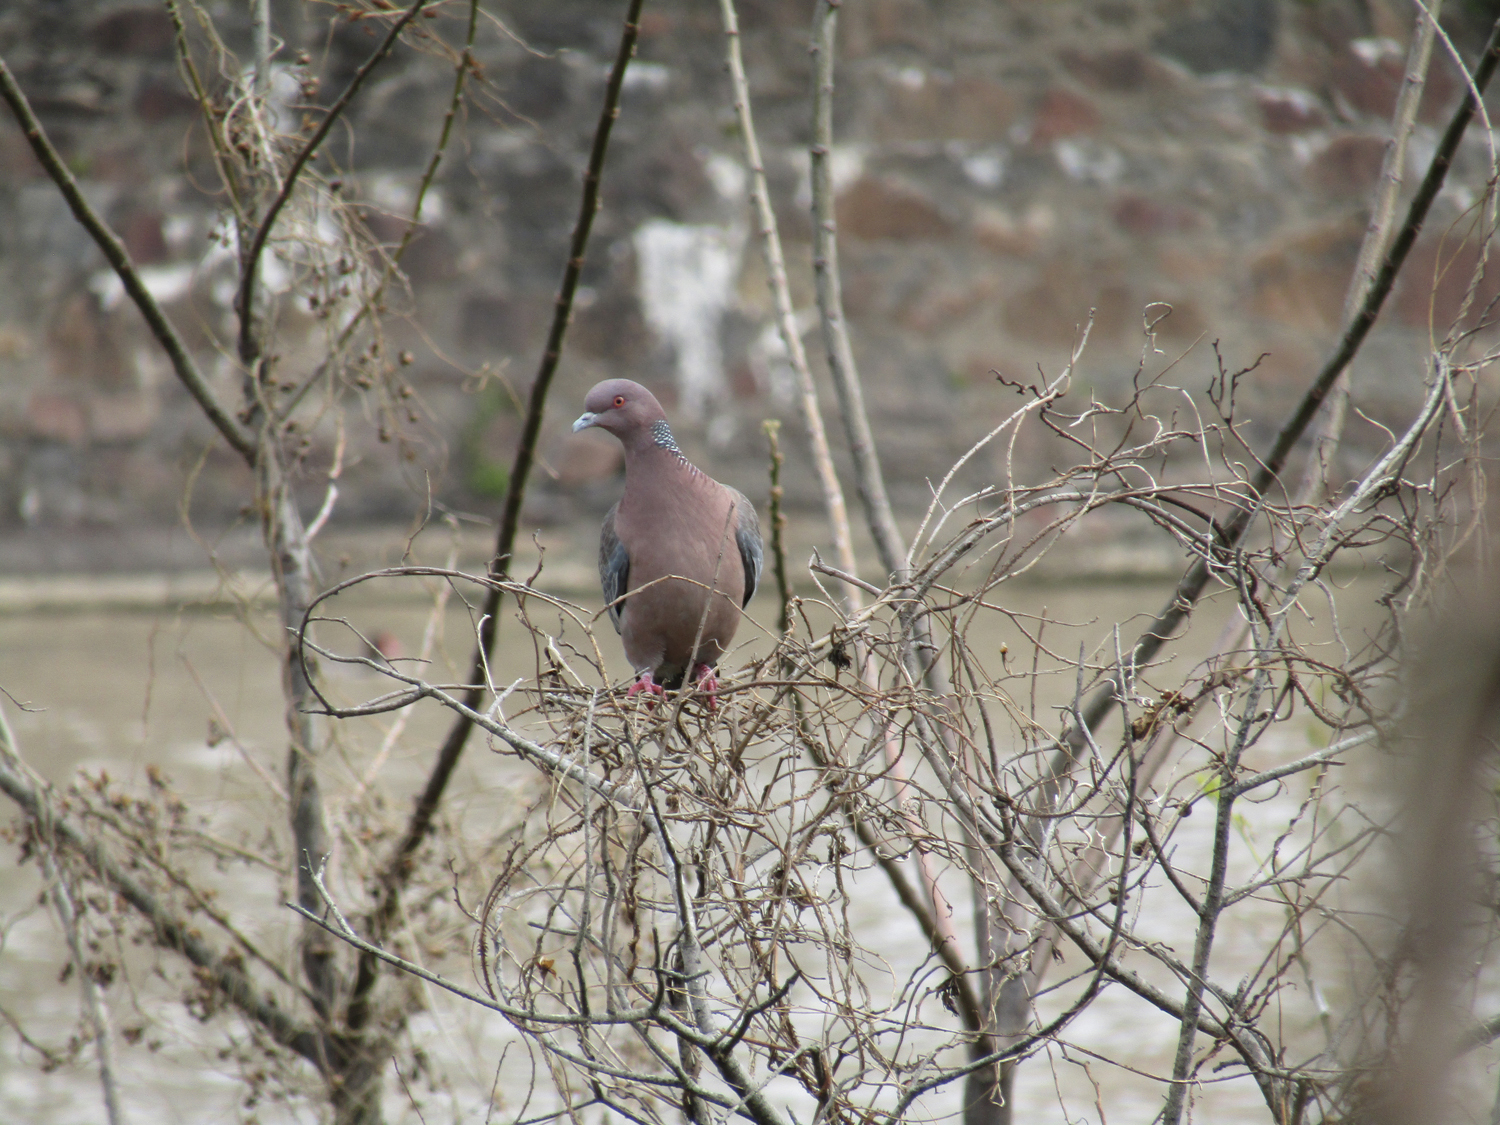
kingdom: Animalia
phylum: Chordata
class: Aves
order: Columbiformes
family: Columbidae
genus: Patagioenas
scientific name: Patagioenas picazuro
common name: Picazuro pigeon
